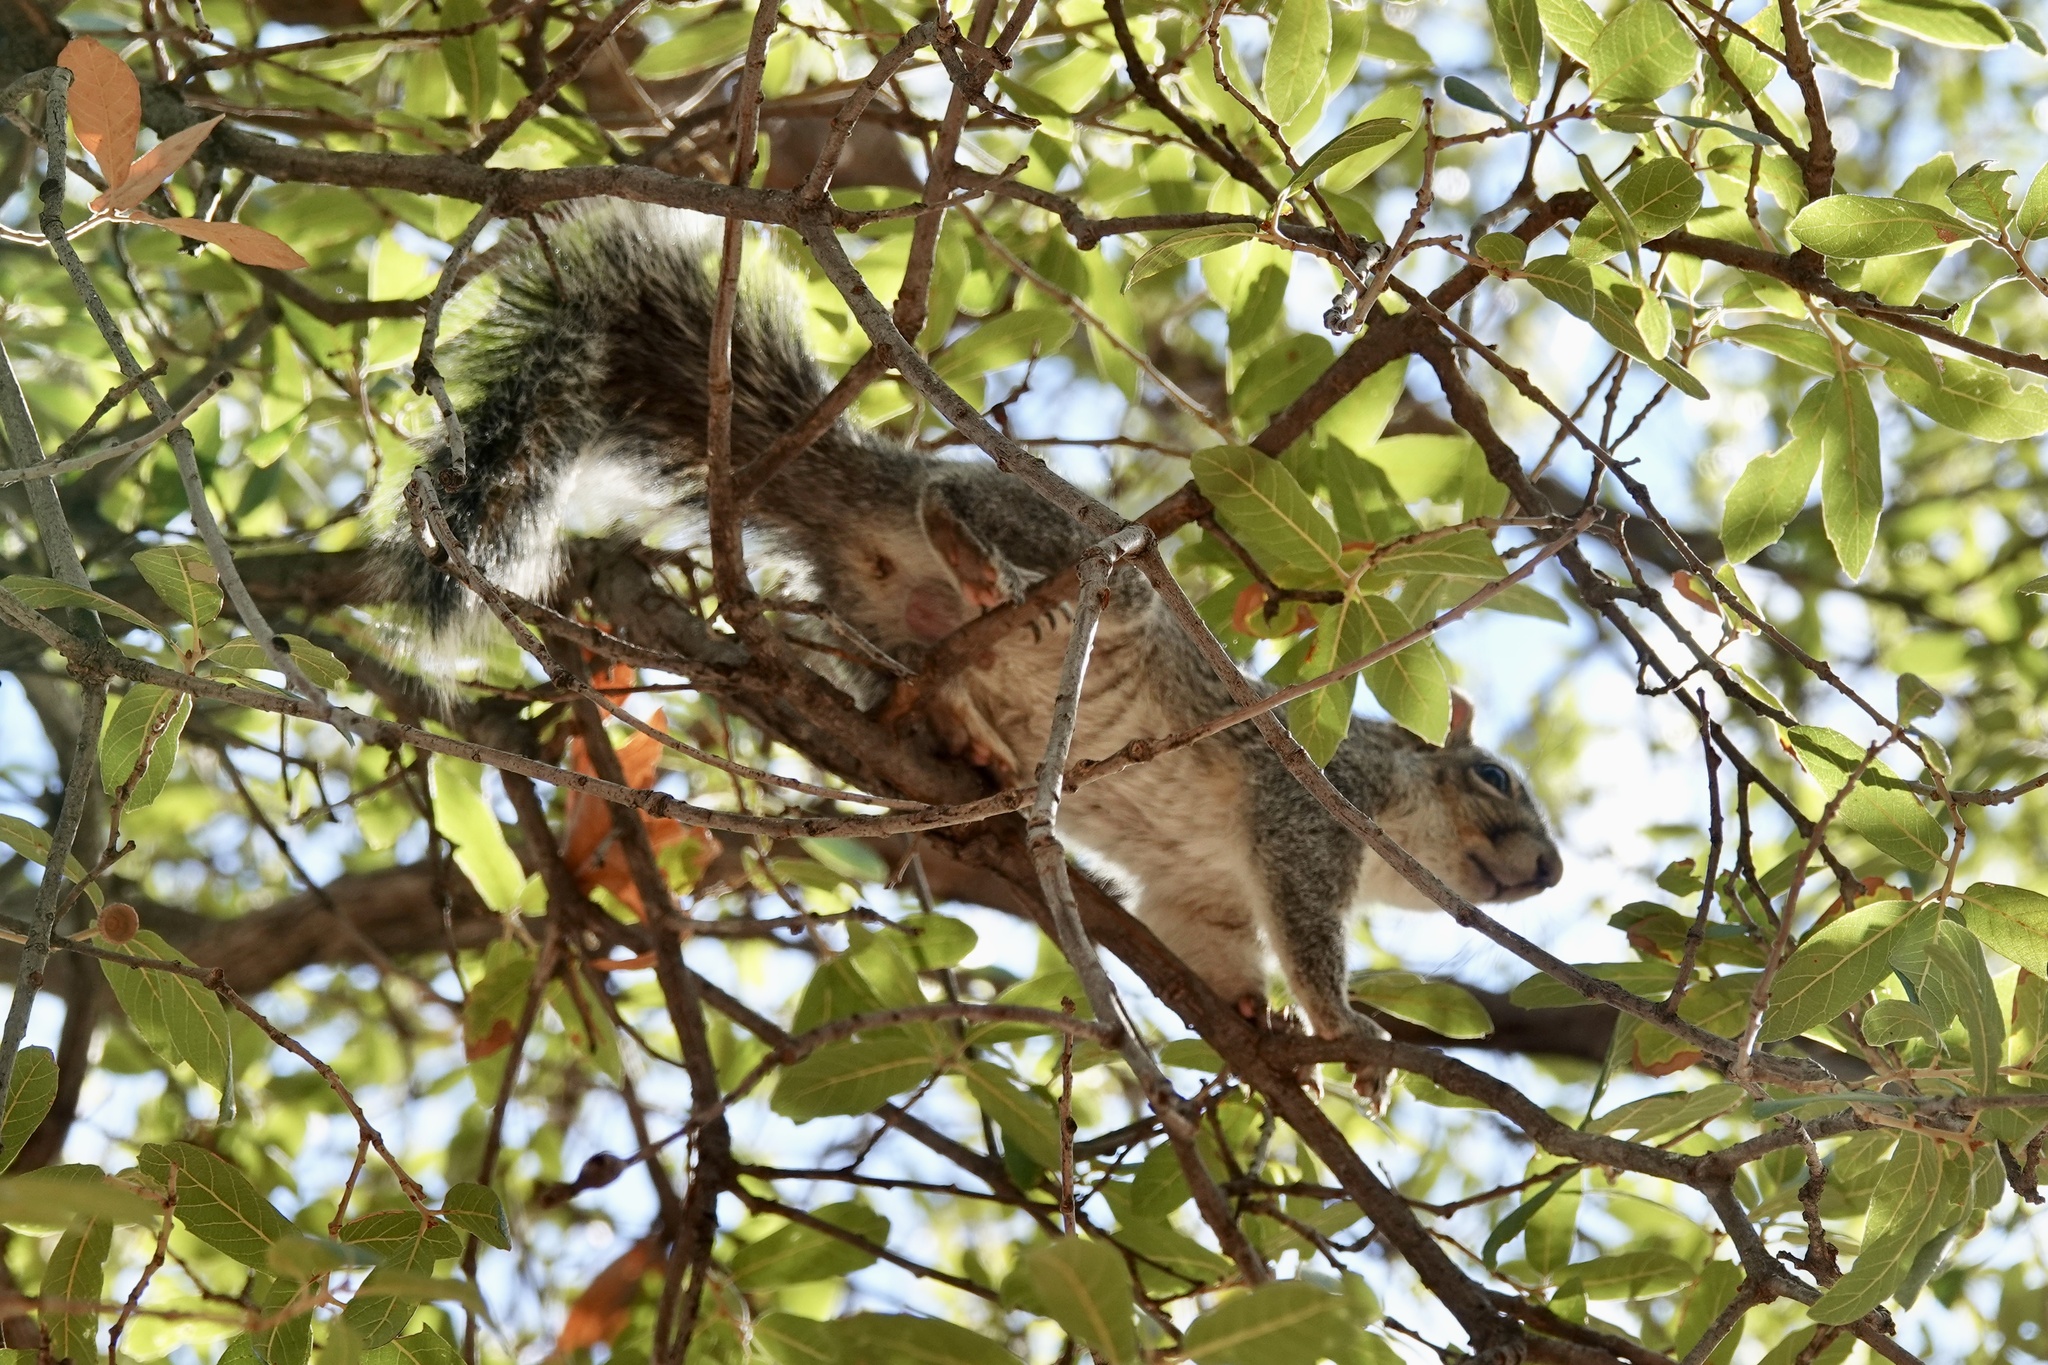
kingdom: Animalia
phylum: Chordata
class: Mammalia
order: Rodentia
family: Sciuridae
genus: Sciurus
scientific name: Sciurus arizonensis
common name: Arizona gray squirrel
